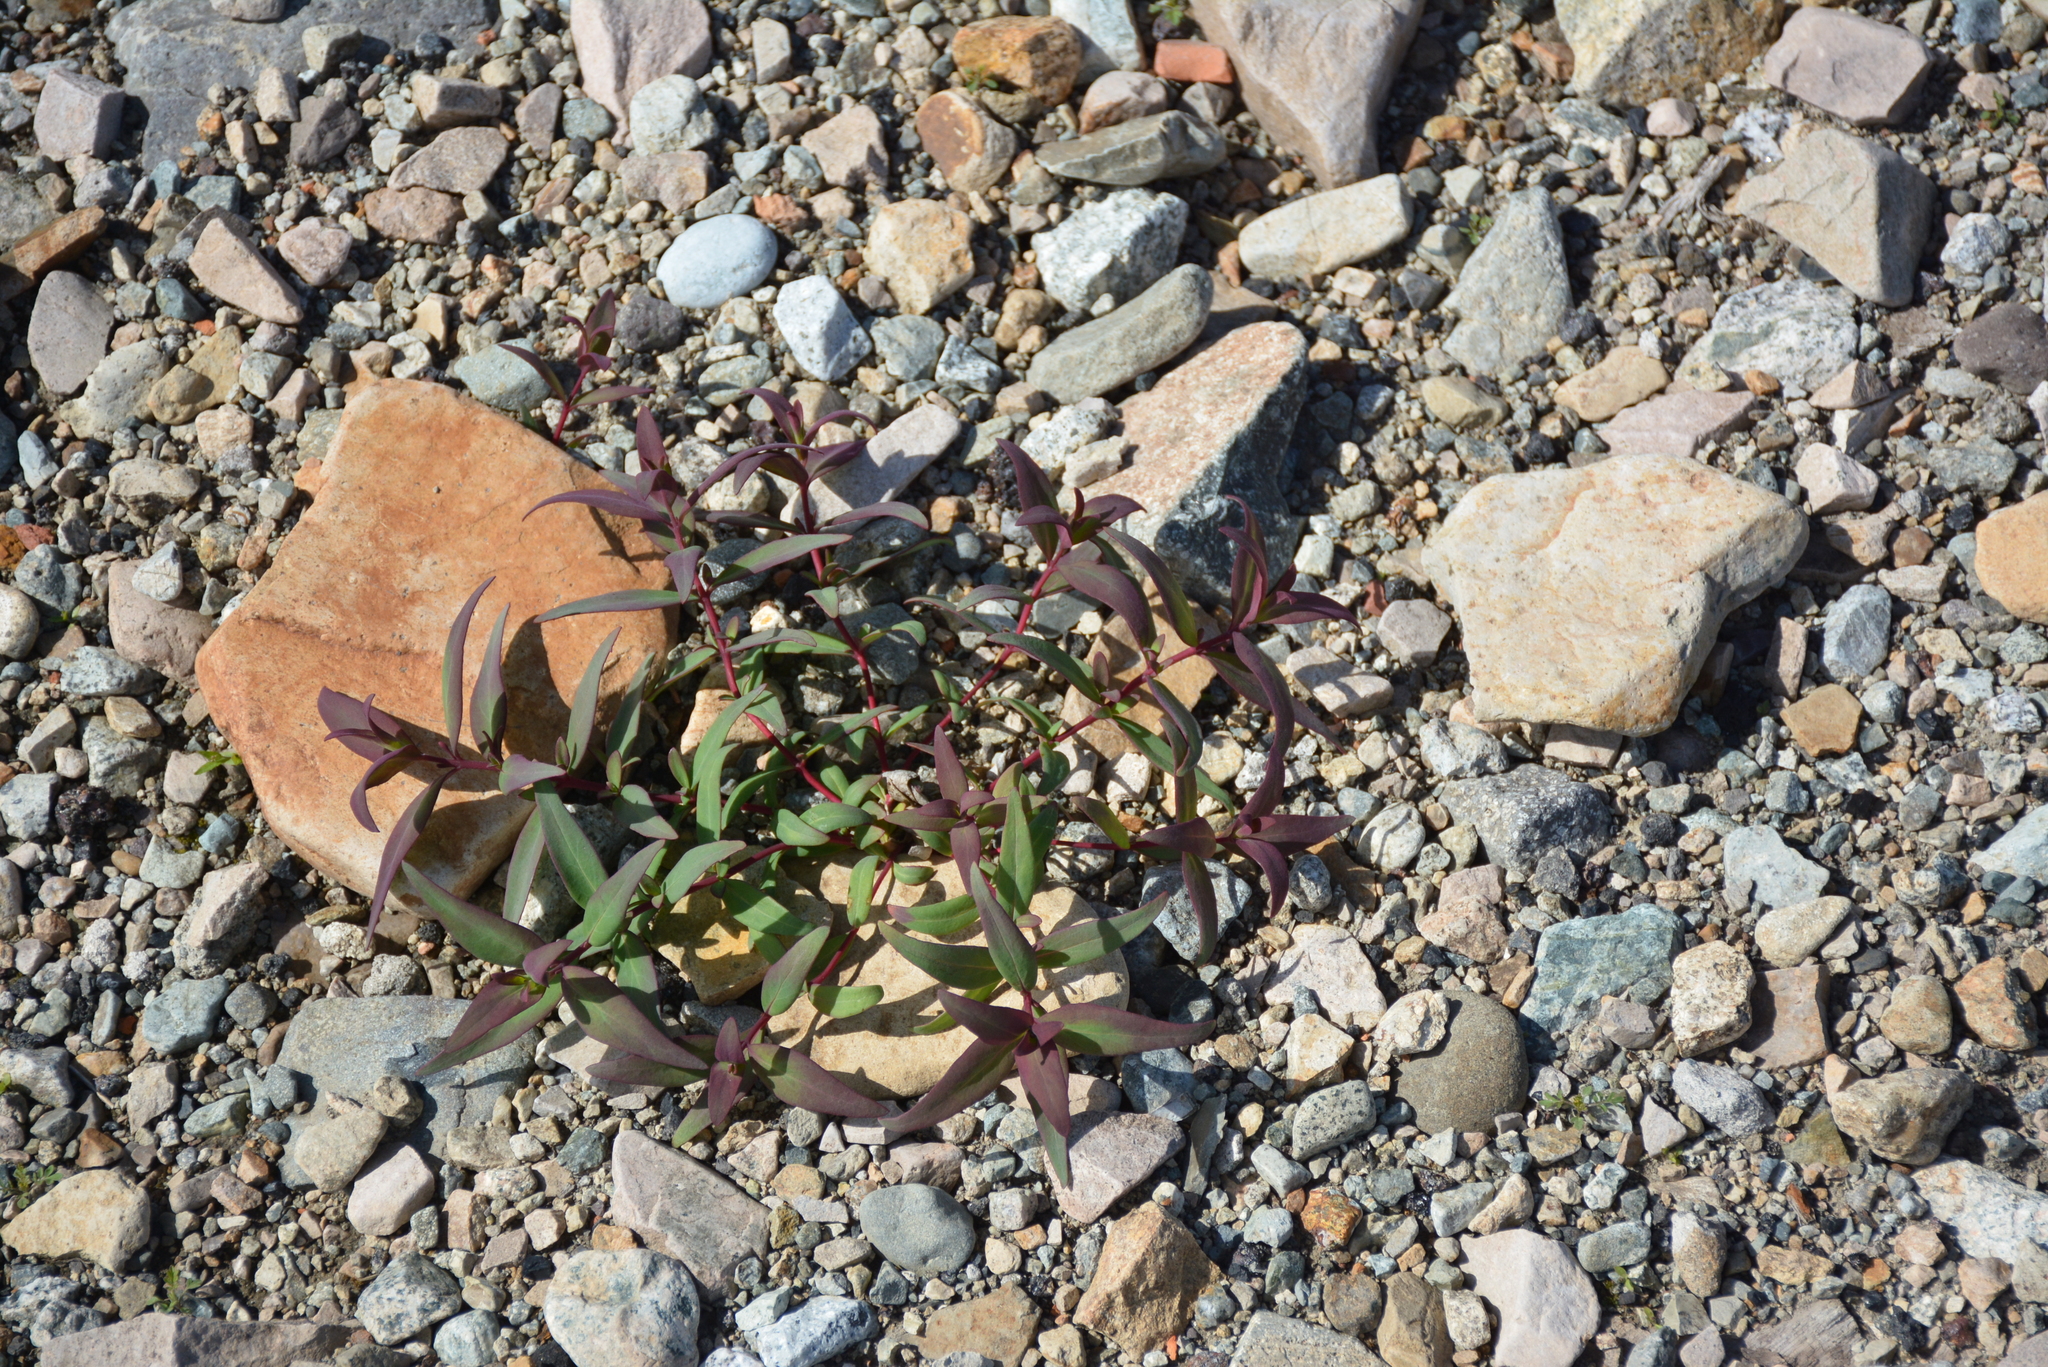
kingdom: Plantae
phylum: Tracheophyta
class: Magnoliopsida
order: Myrtales
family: Onagraceae
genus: Chamaenerion
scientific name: Chamaenerion latifolium
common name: Dwarf fireweed
